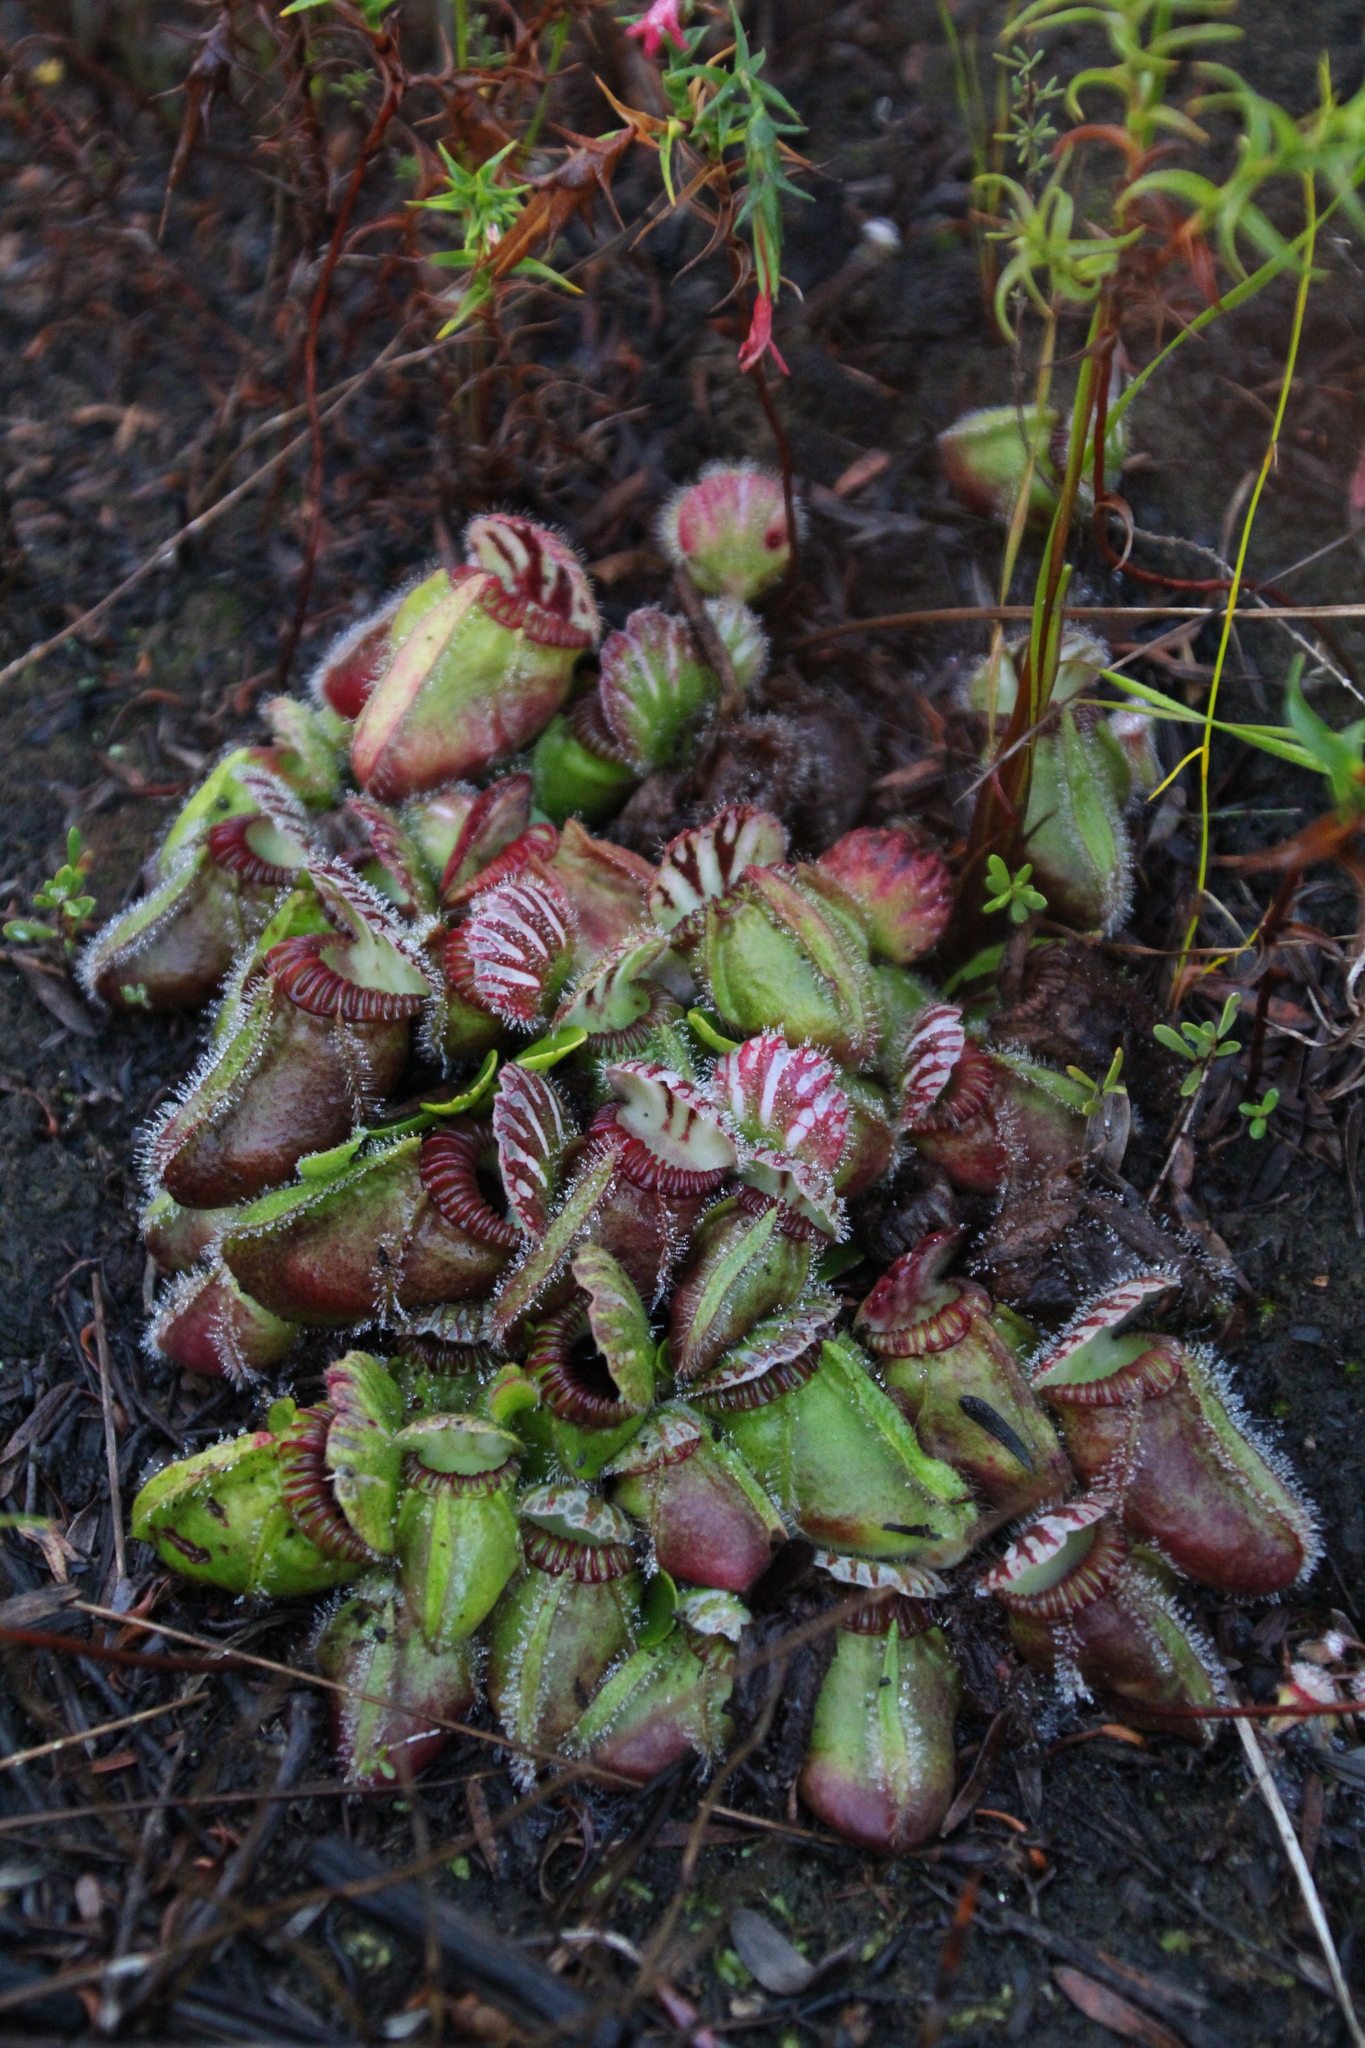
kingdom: Plantae
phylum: Tracheophyta
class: Magnoliopsida
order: Oxalidales
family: Cephalotaceae
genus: Cephalotus
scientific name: Cephalotus follicularis
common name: Australian pitcher plant
